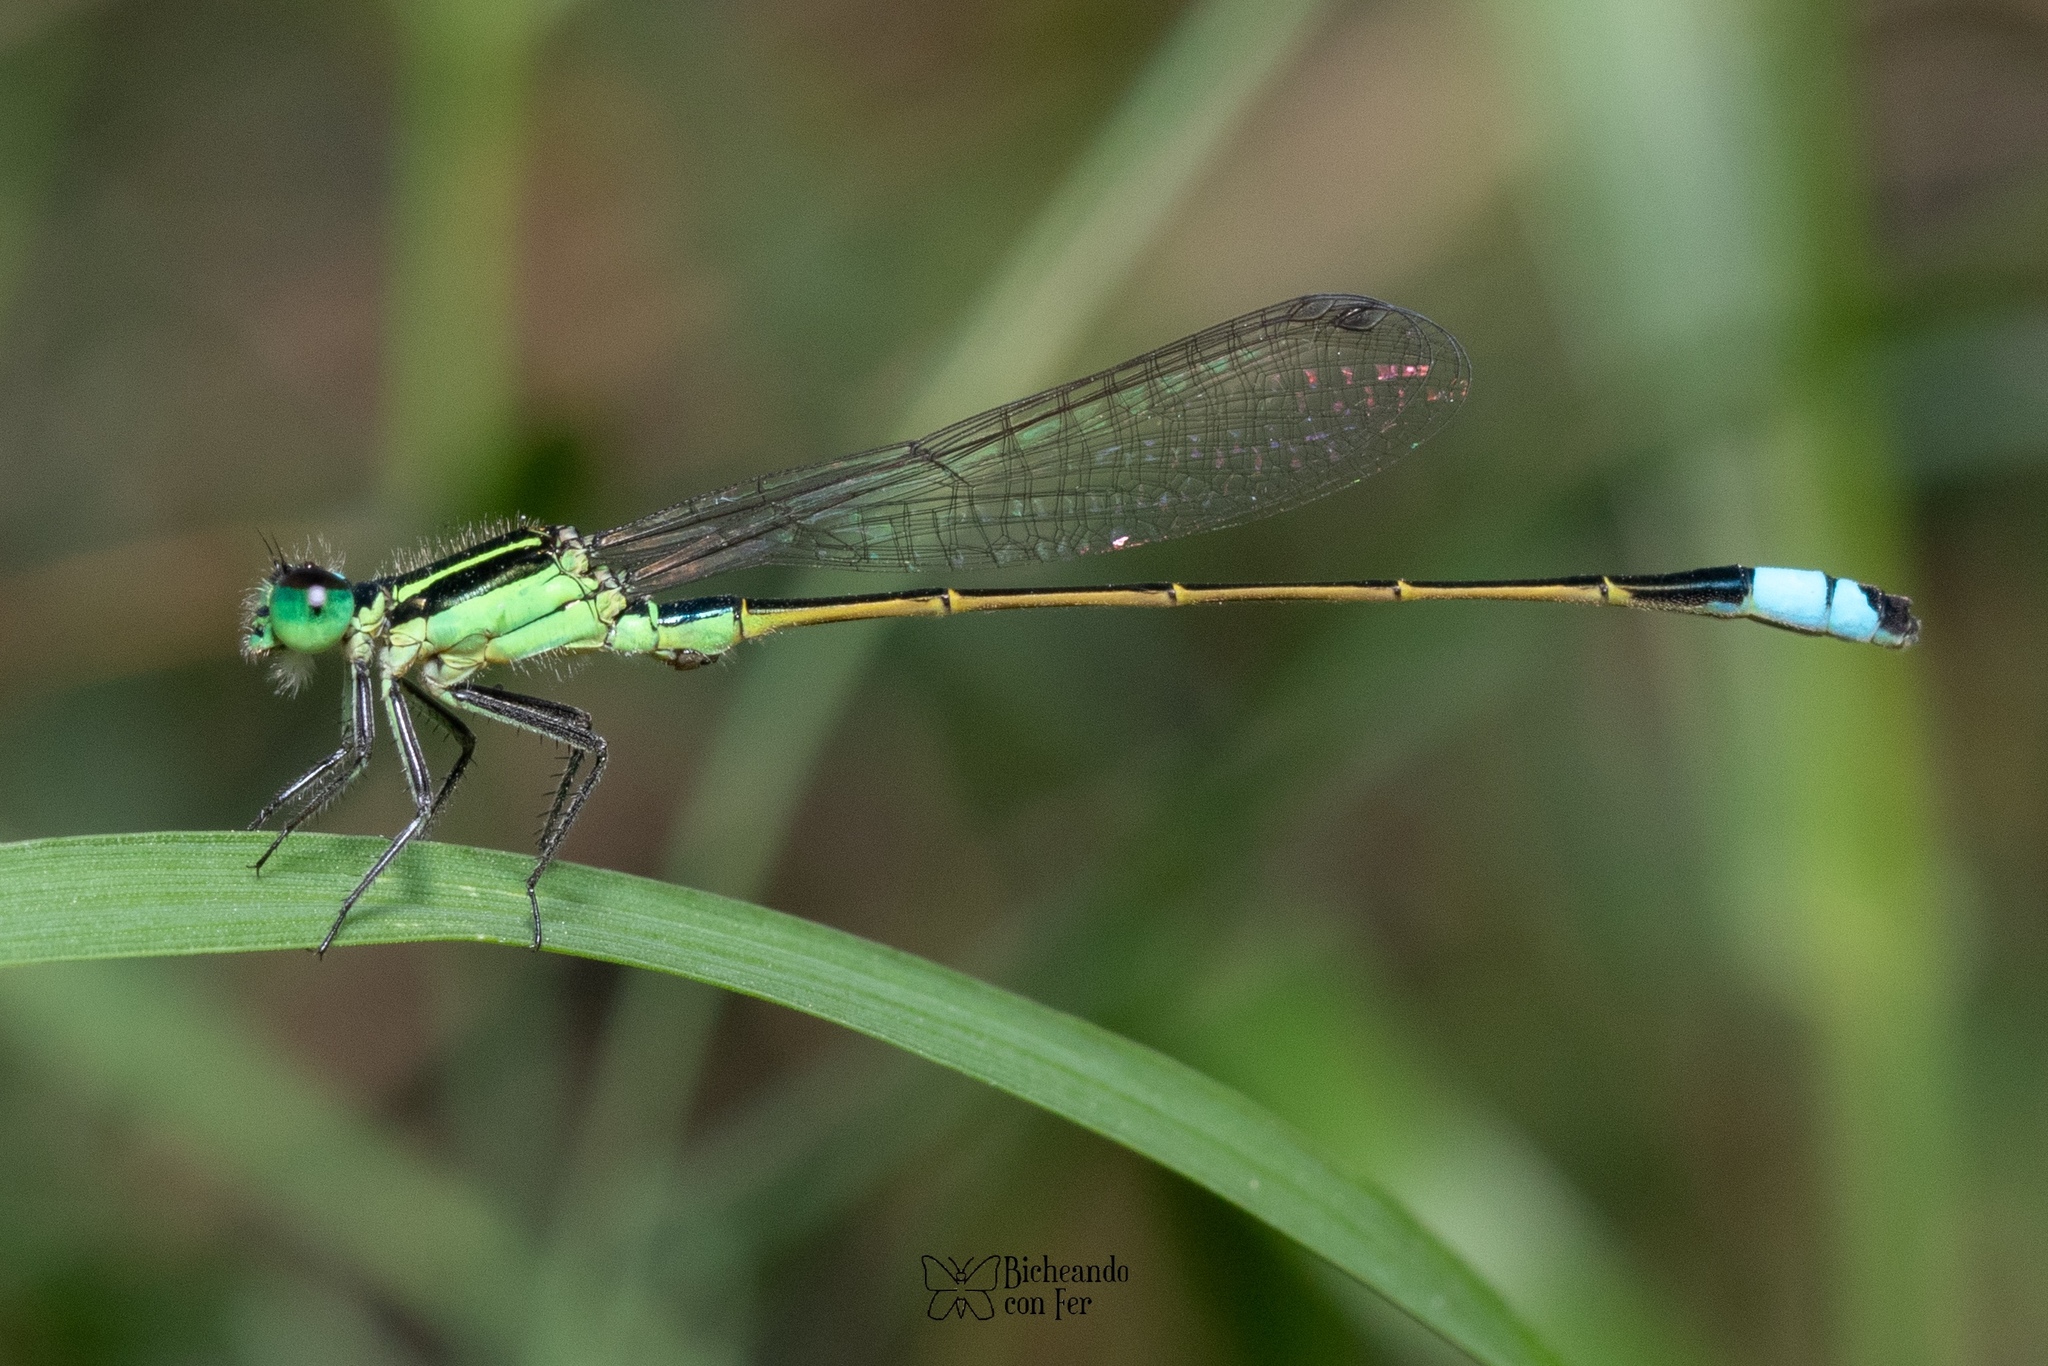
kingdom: Animalia
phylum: Arthropoda
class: Insecta
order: Odonata
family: Coenagrionidae
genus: Ischnura
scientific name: Ischnura ramburii
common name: Rambur's forktail
